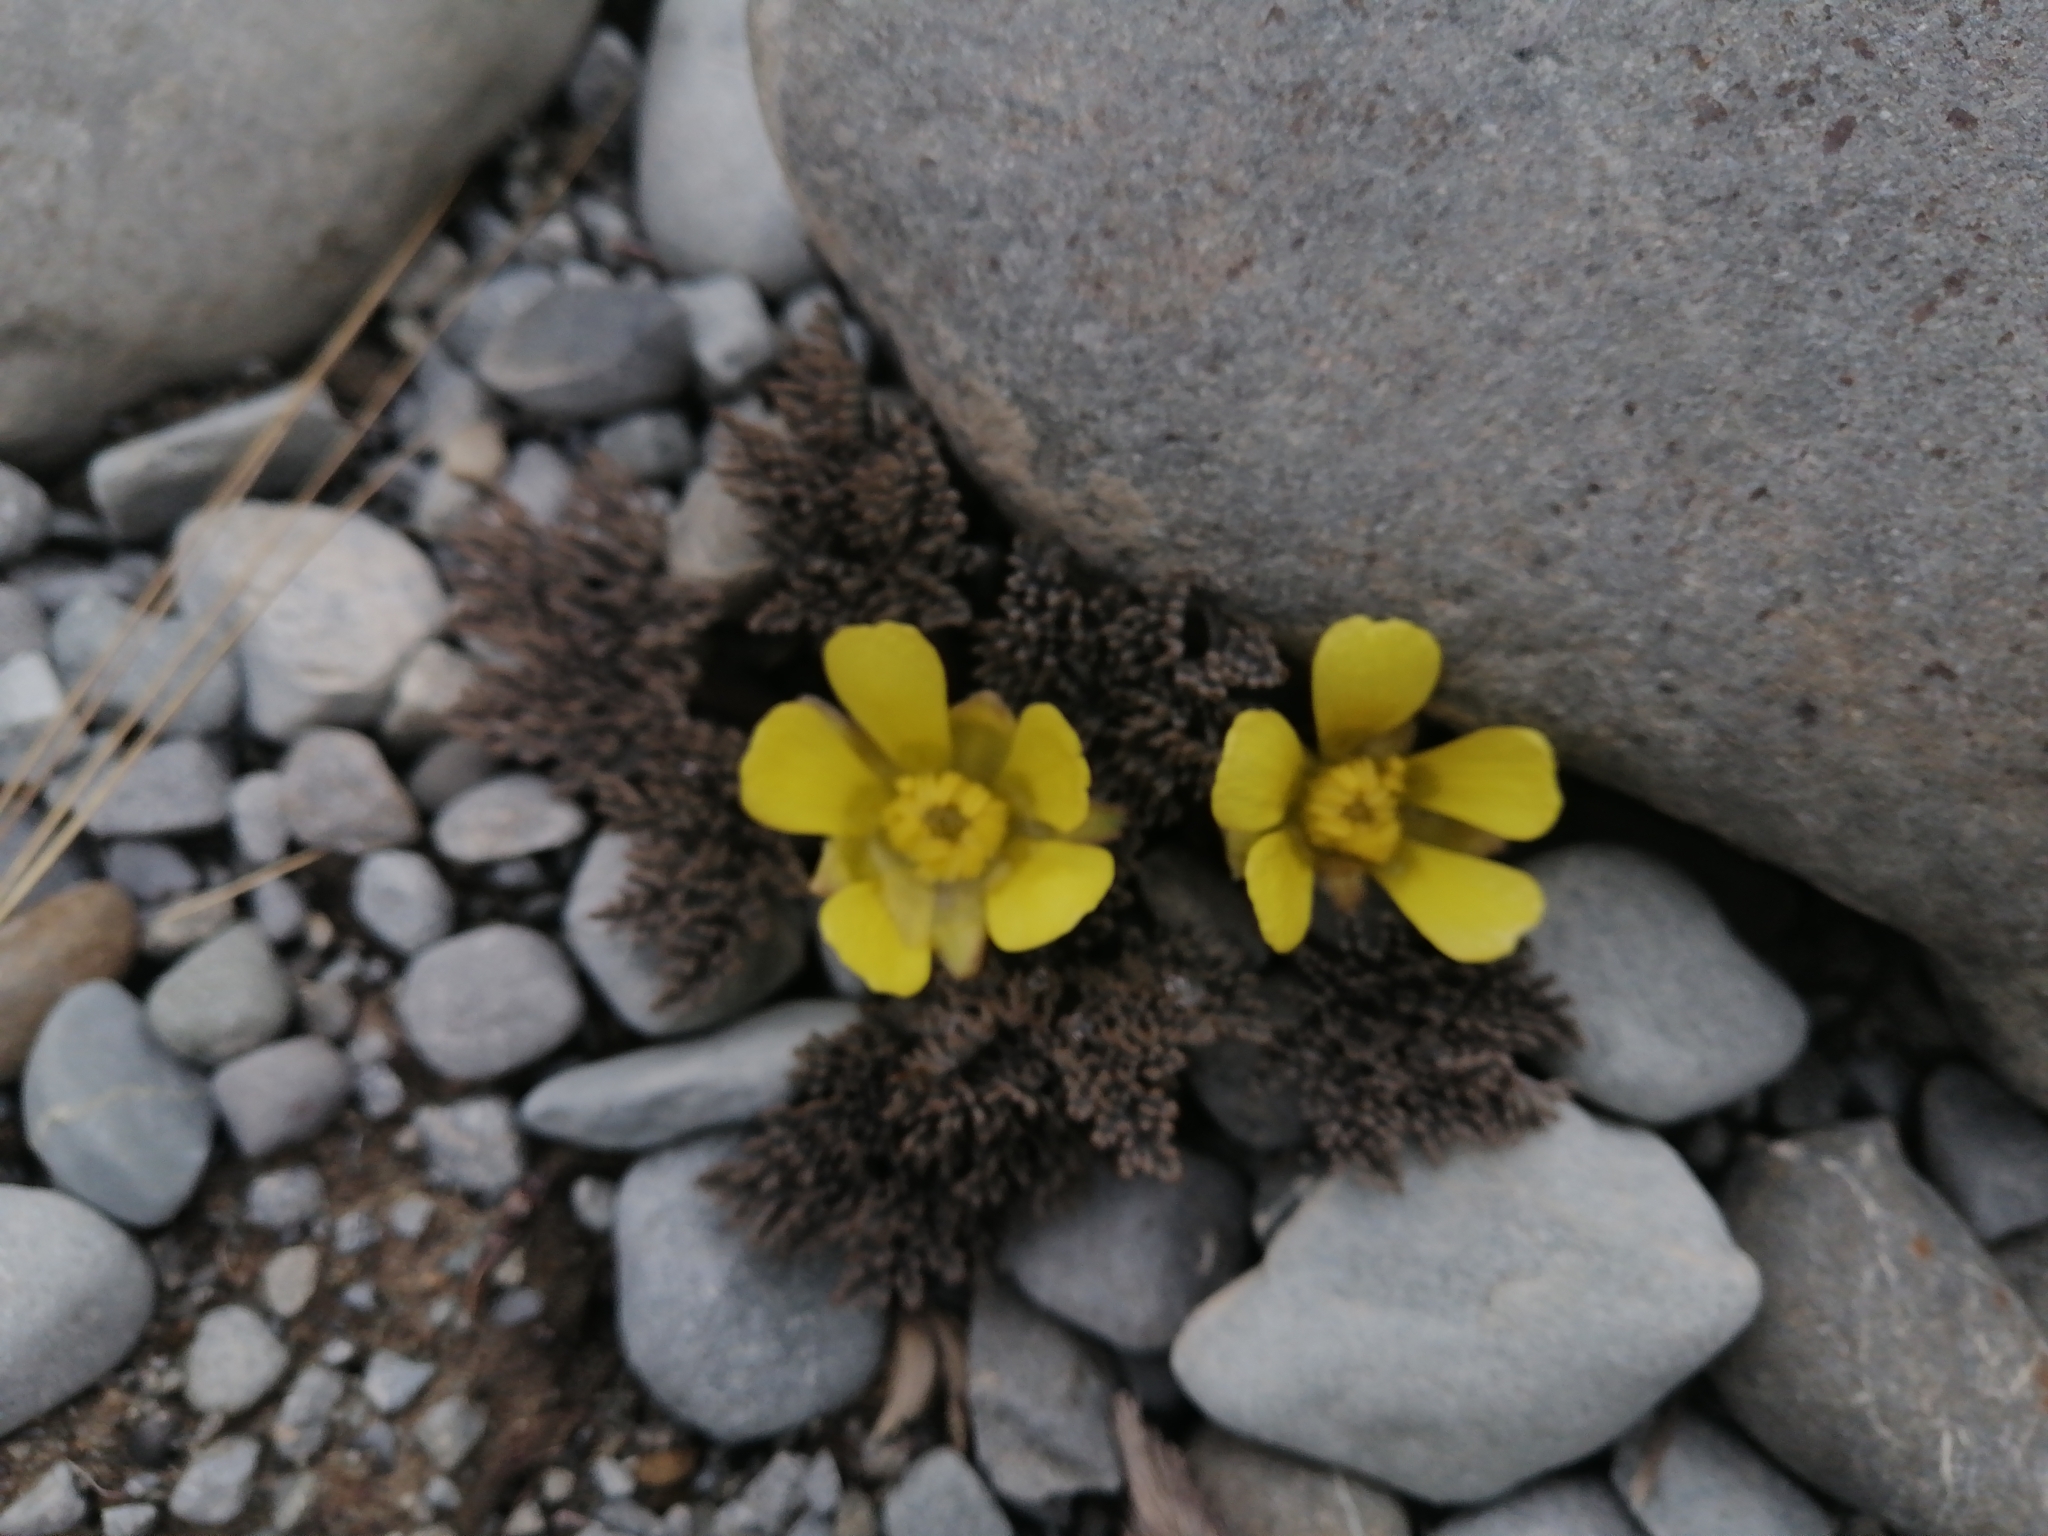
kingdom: Plantae
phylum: Tracheophyta
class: Magnoliopsida
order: Ranunculales
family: Ranunculaceae
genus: Ranunculus
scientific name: Ranunculus crithmifolius
